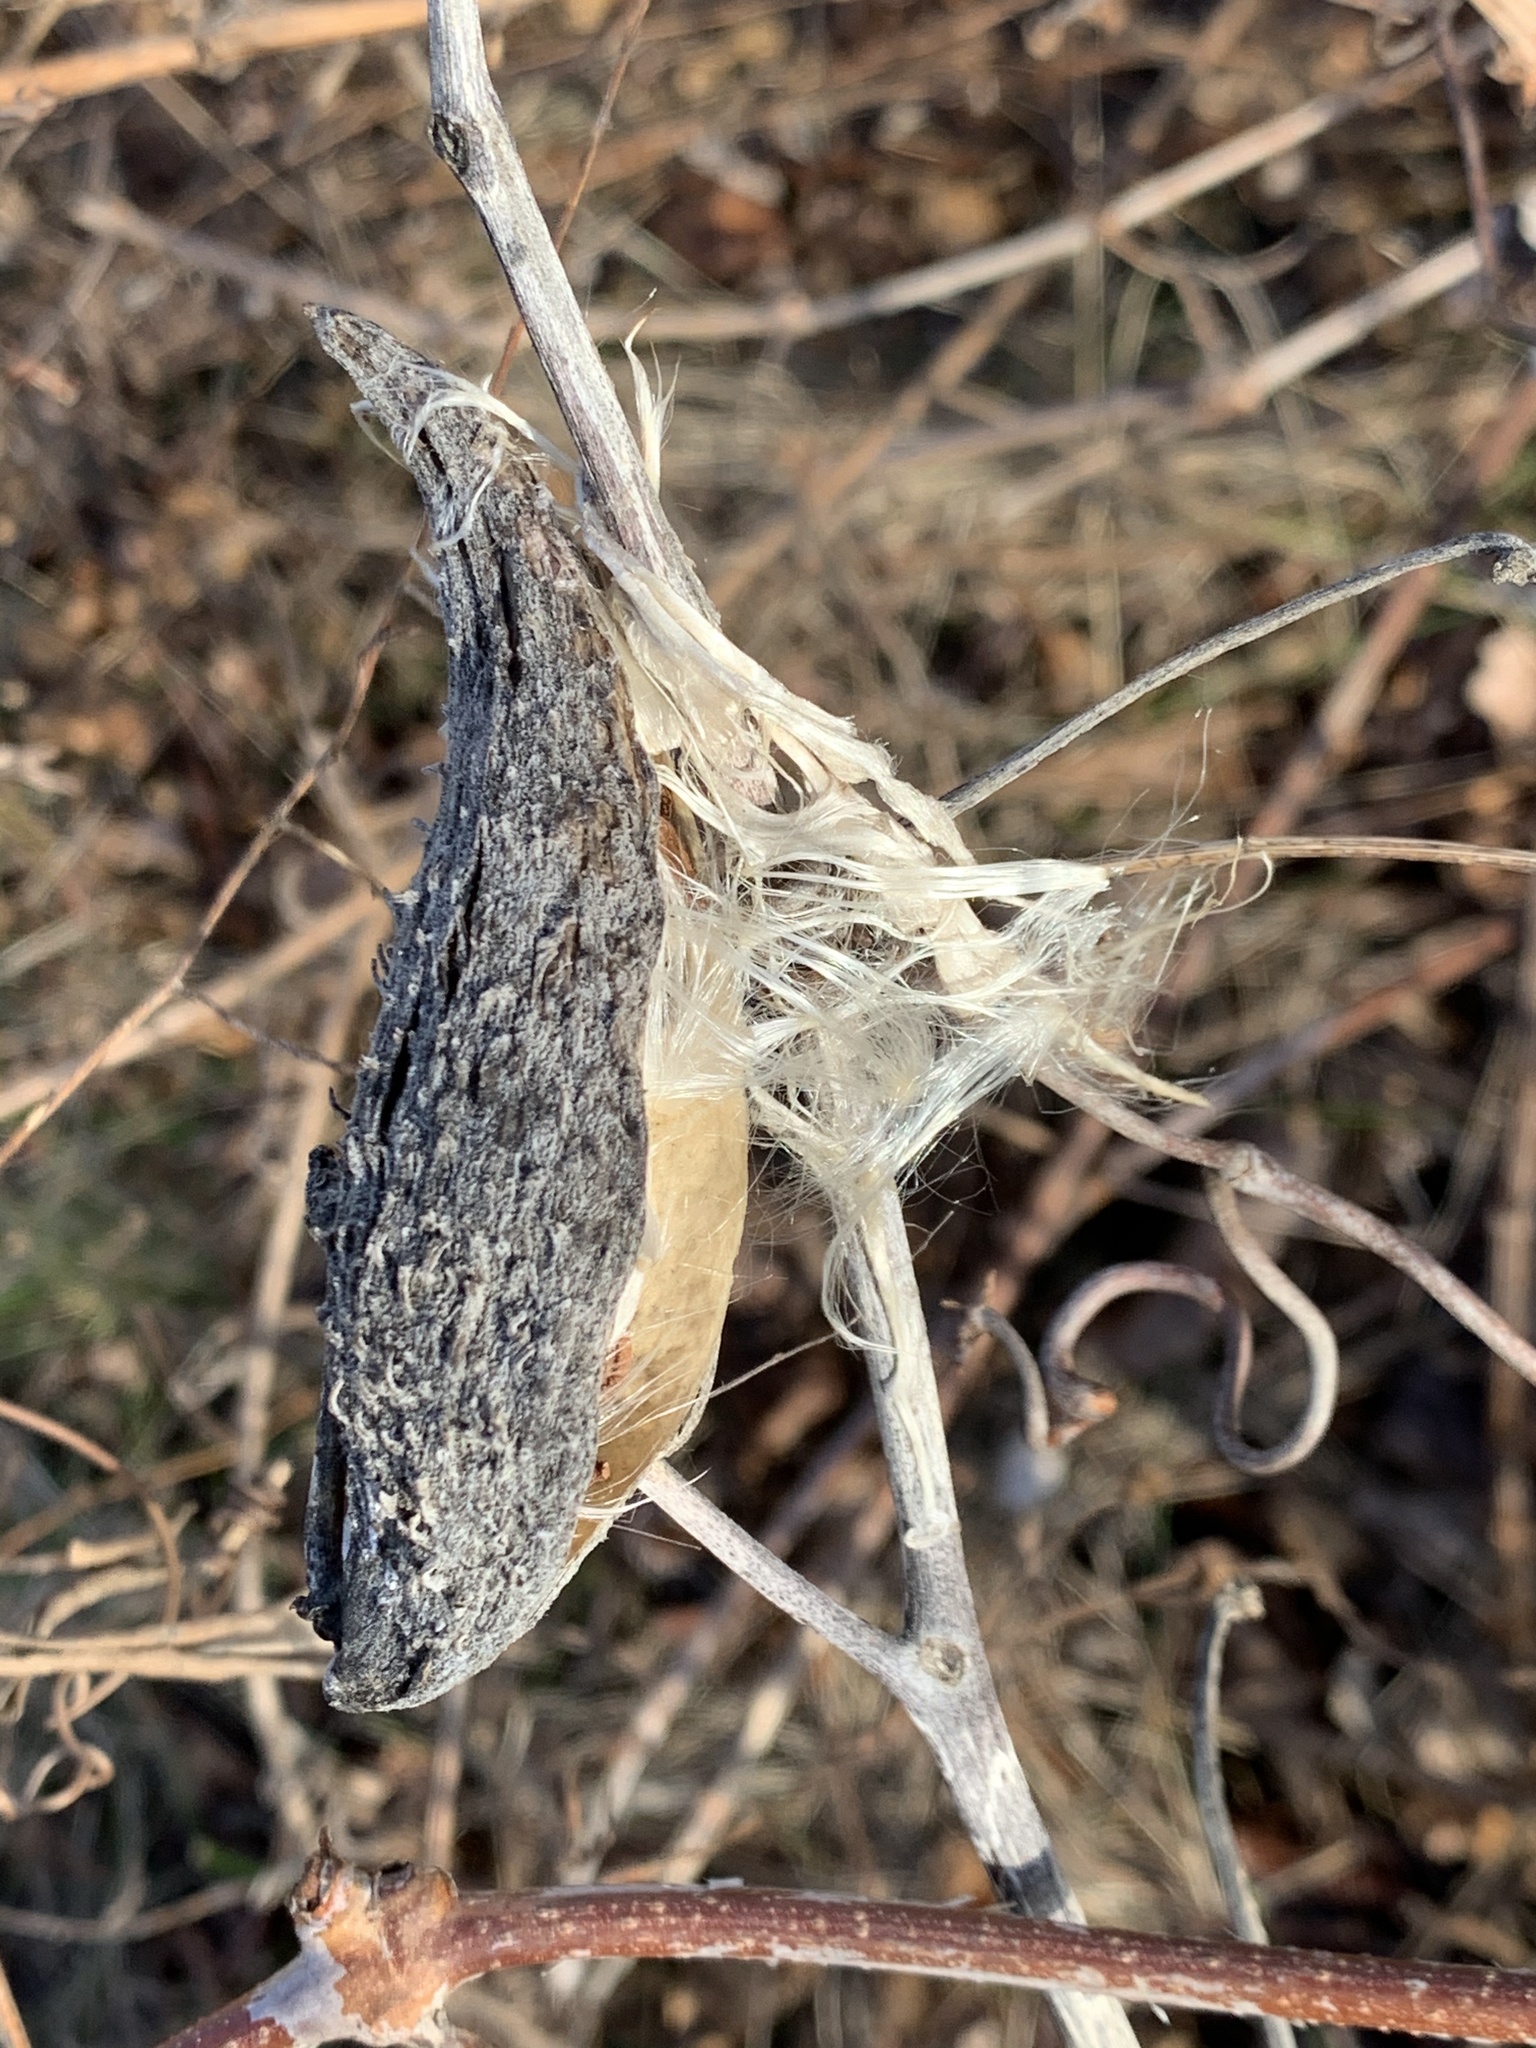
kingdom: Plantae
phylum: Tracheophyta
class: Magnoliopsida
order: Gentianales
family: Apocynaceae
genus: Asclepias
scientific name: Asclepias syriaca
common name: Common milkweed
